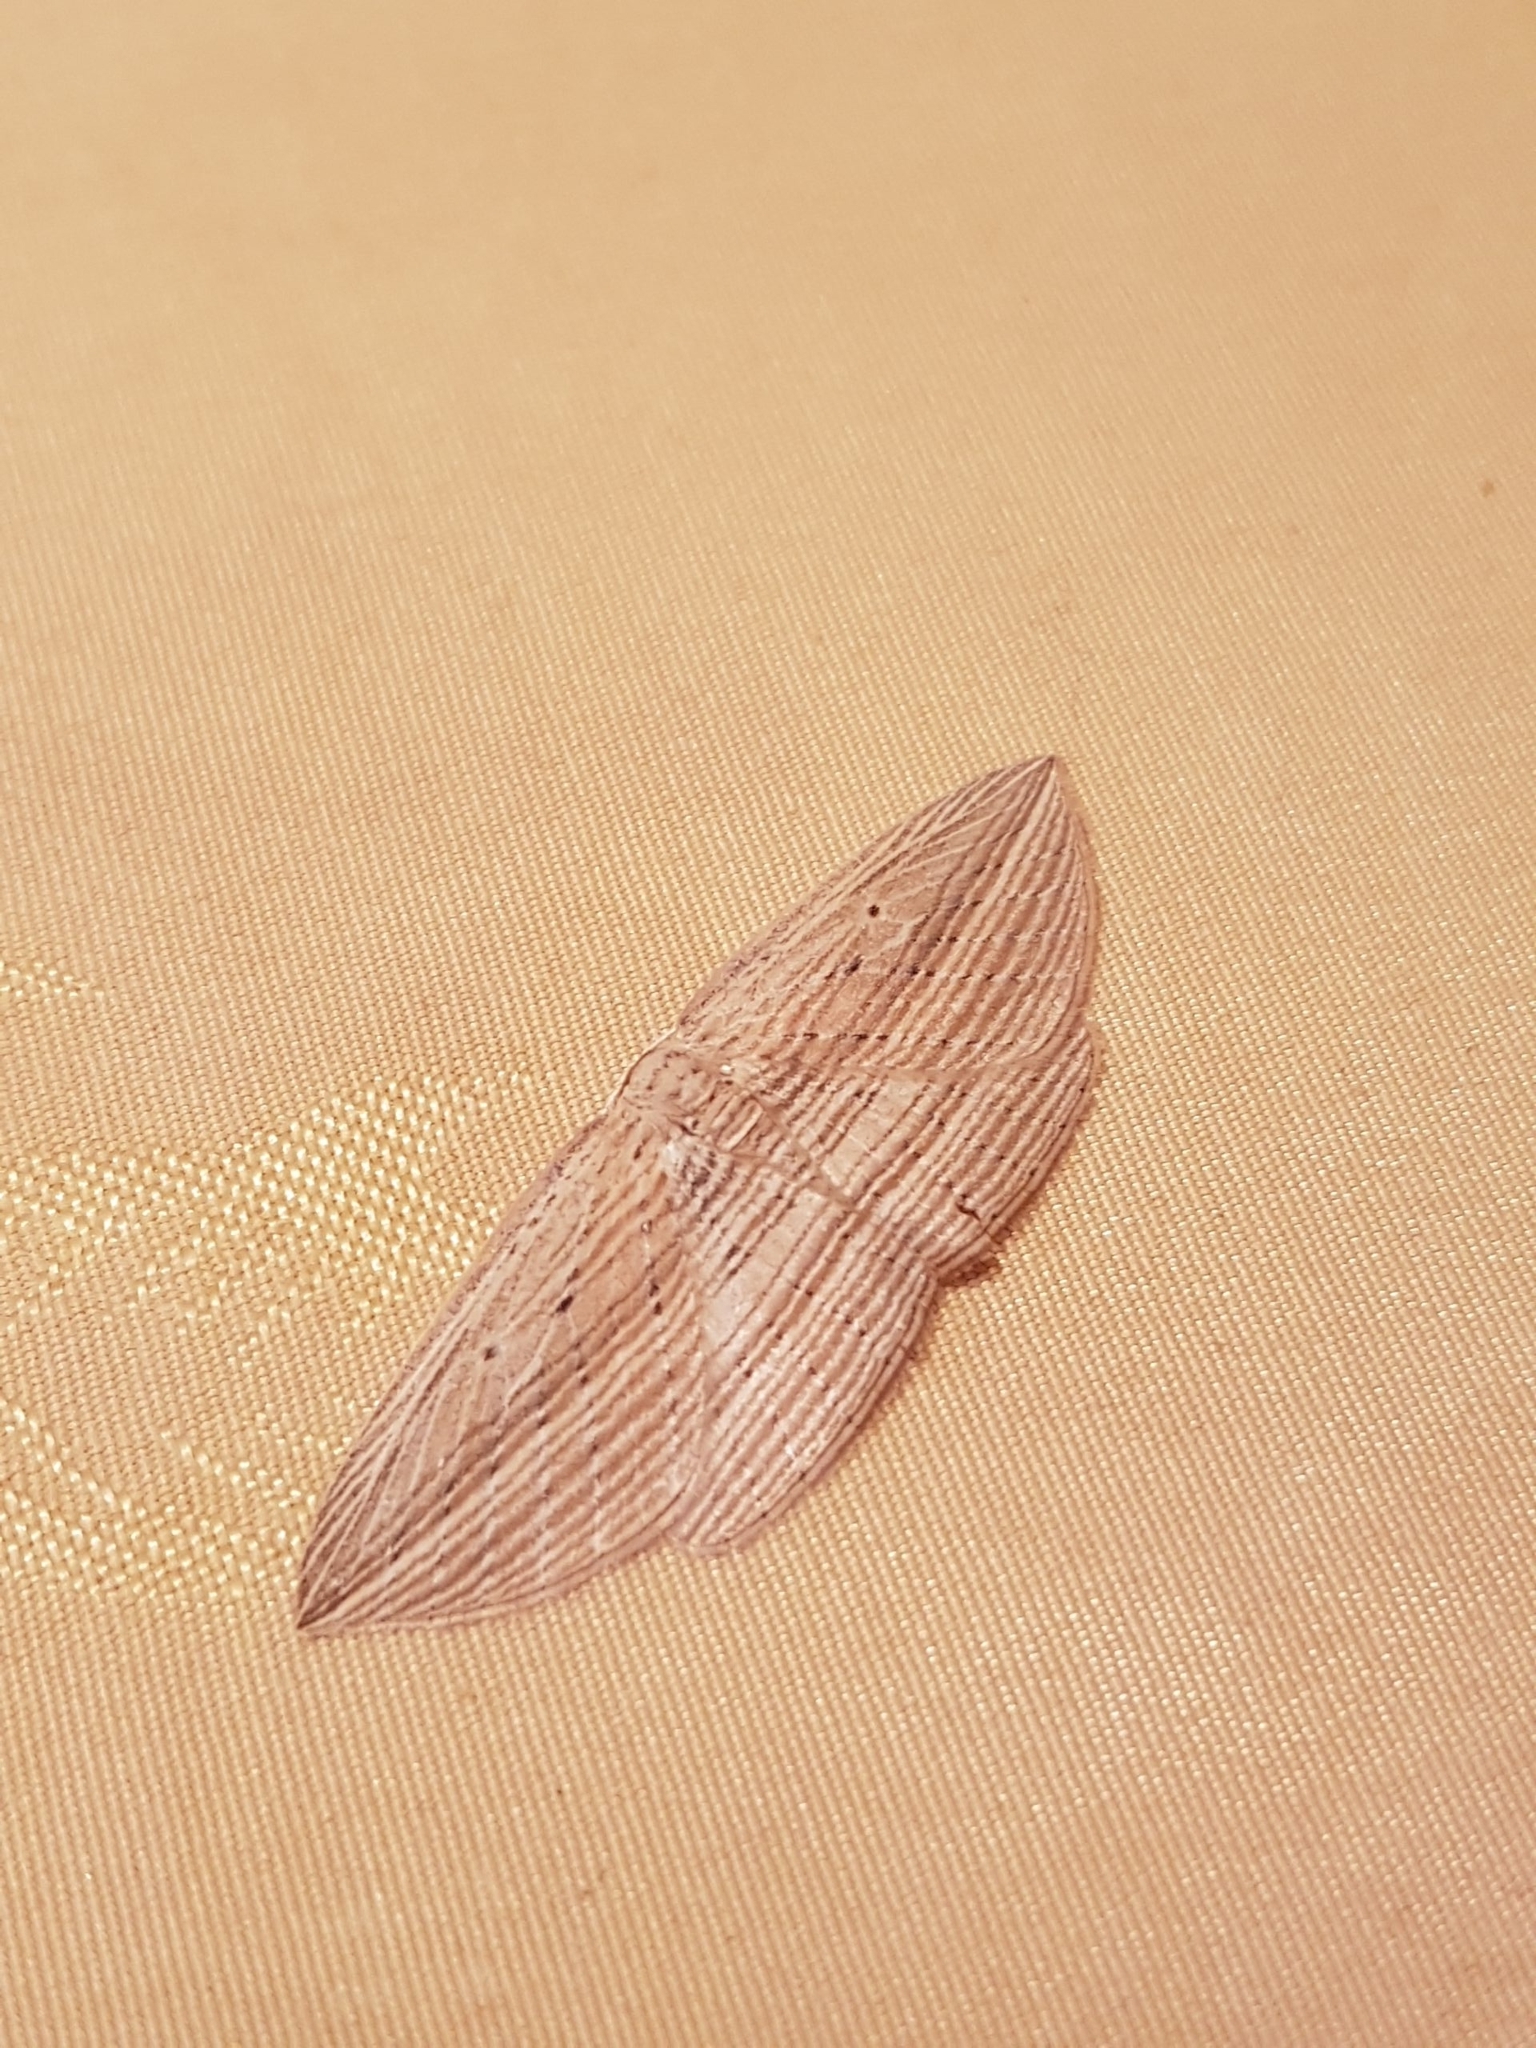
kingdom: Animalia
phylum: Arthropoda
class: Insecta
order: Lepidoptera
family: Geometridae
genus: Epiphryne
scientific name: Epiphryne verriculata
